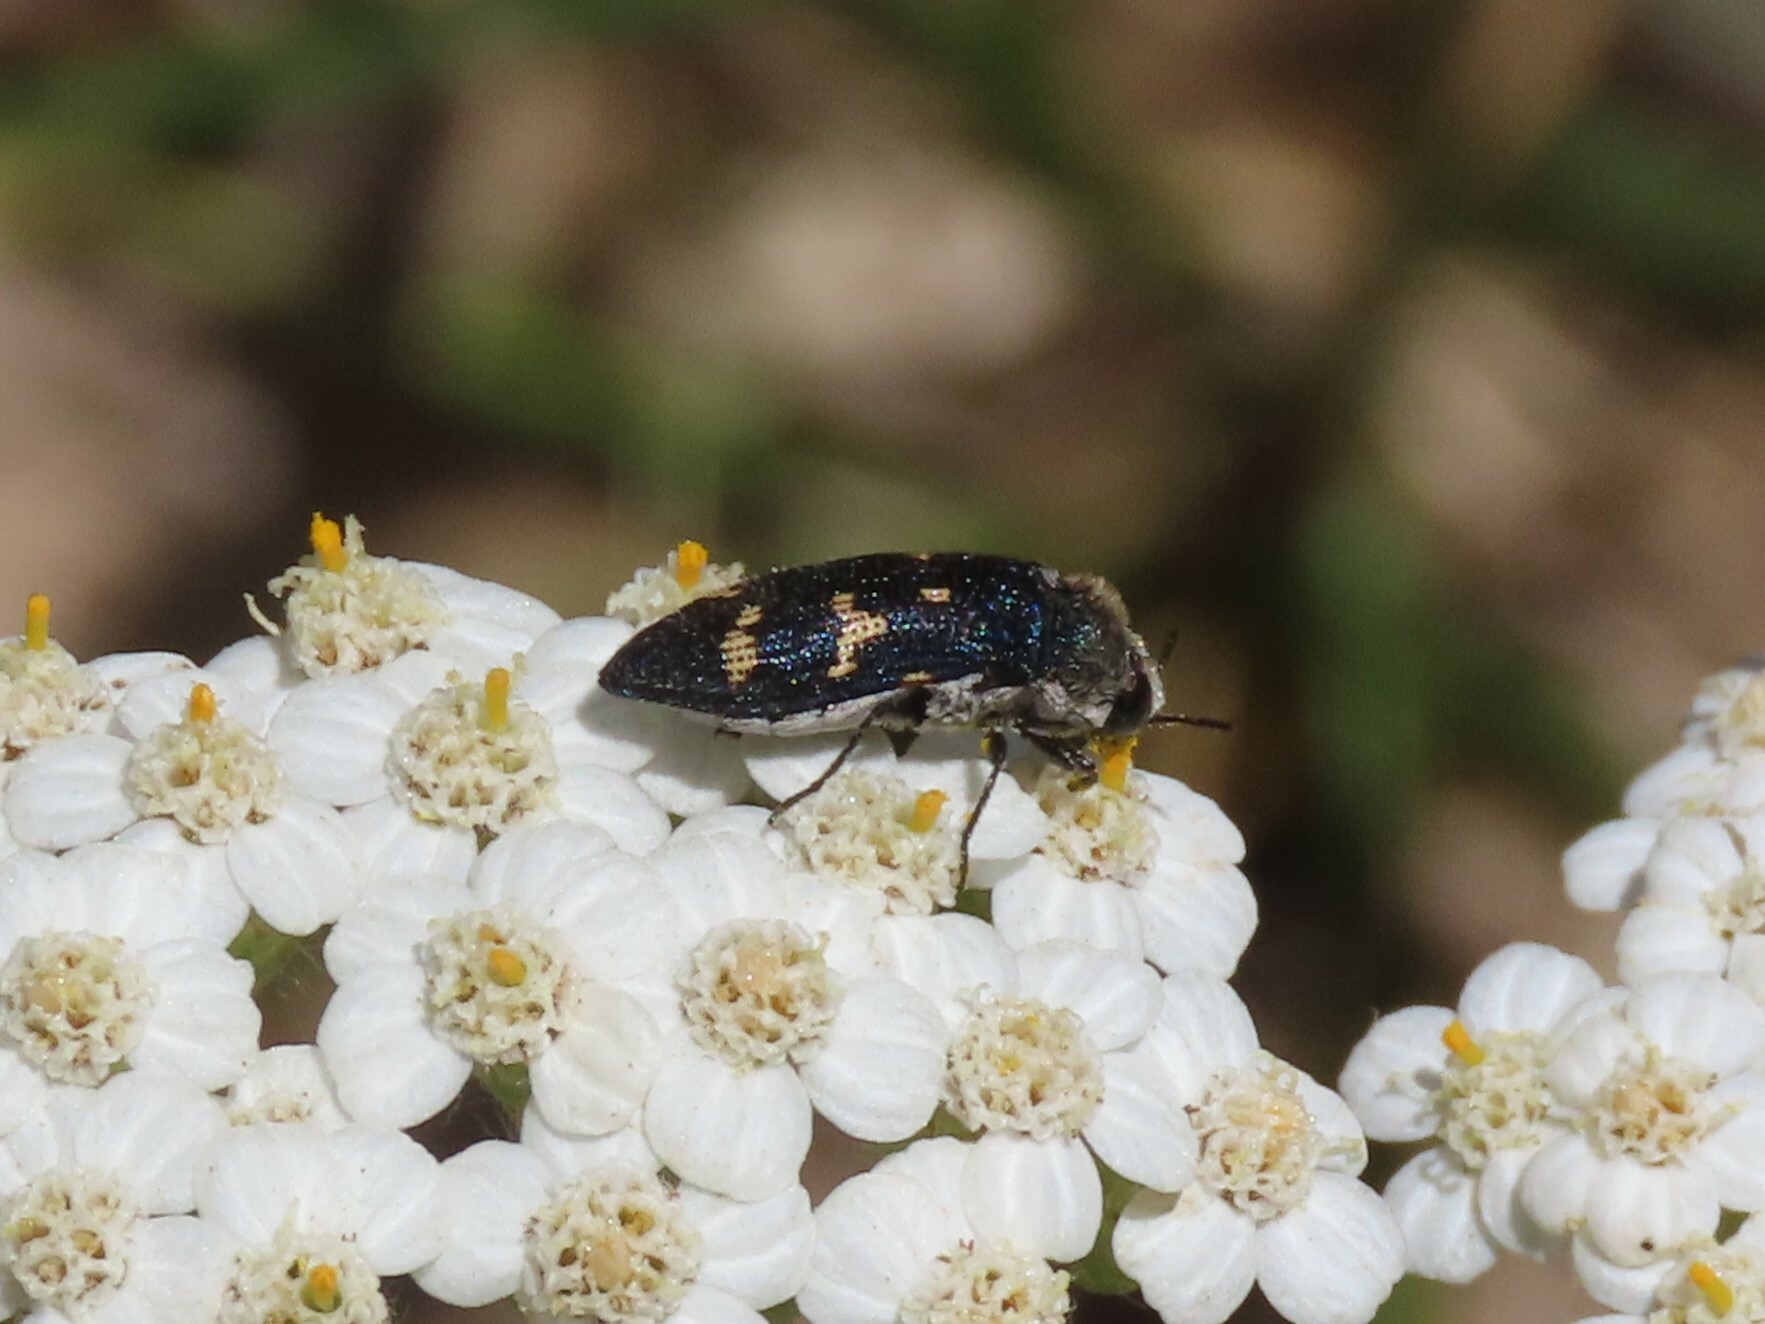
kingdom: Animalia
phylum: Arthropoda
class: Insecta
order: Coleoptera
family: Buprestidae
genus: Acmaeoderella
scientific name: Acmaeoderella flavofasciata
